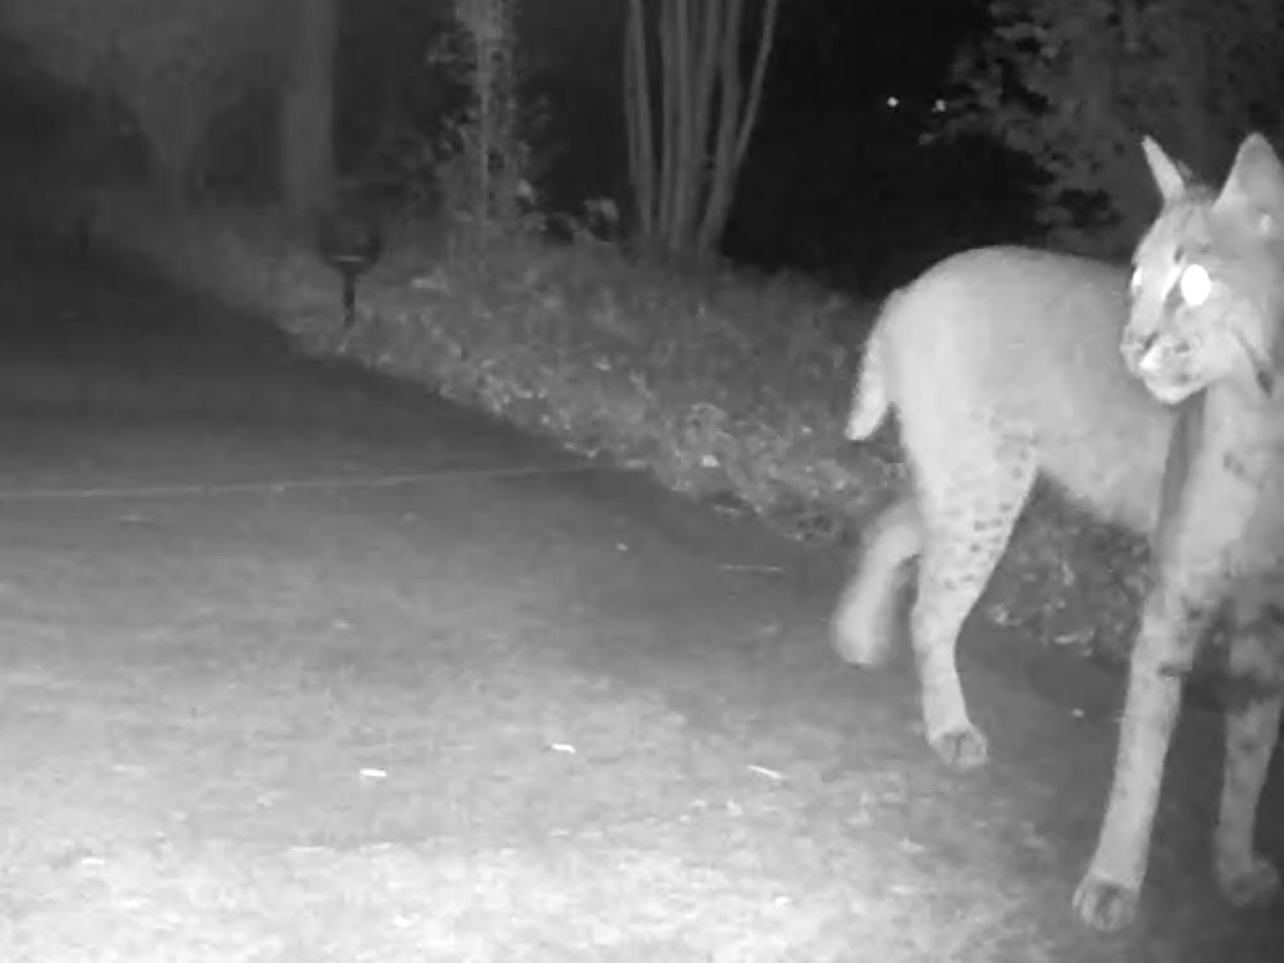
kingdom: Animalia
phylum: Chordata
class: Mammalia
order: Carnivora
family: Felidae
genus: Lynx
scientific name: Lynx rufus
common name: Bobcat
